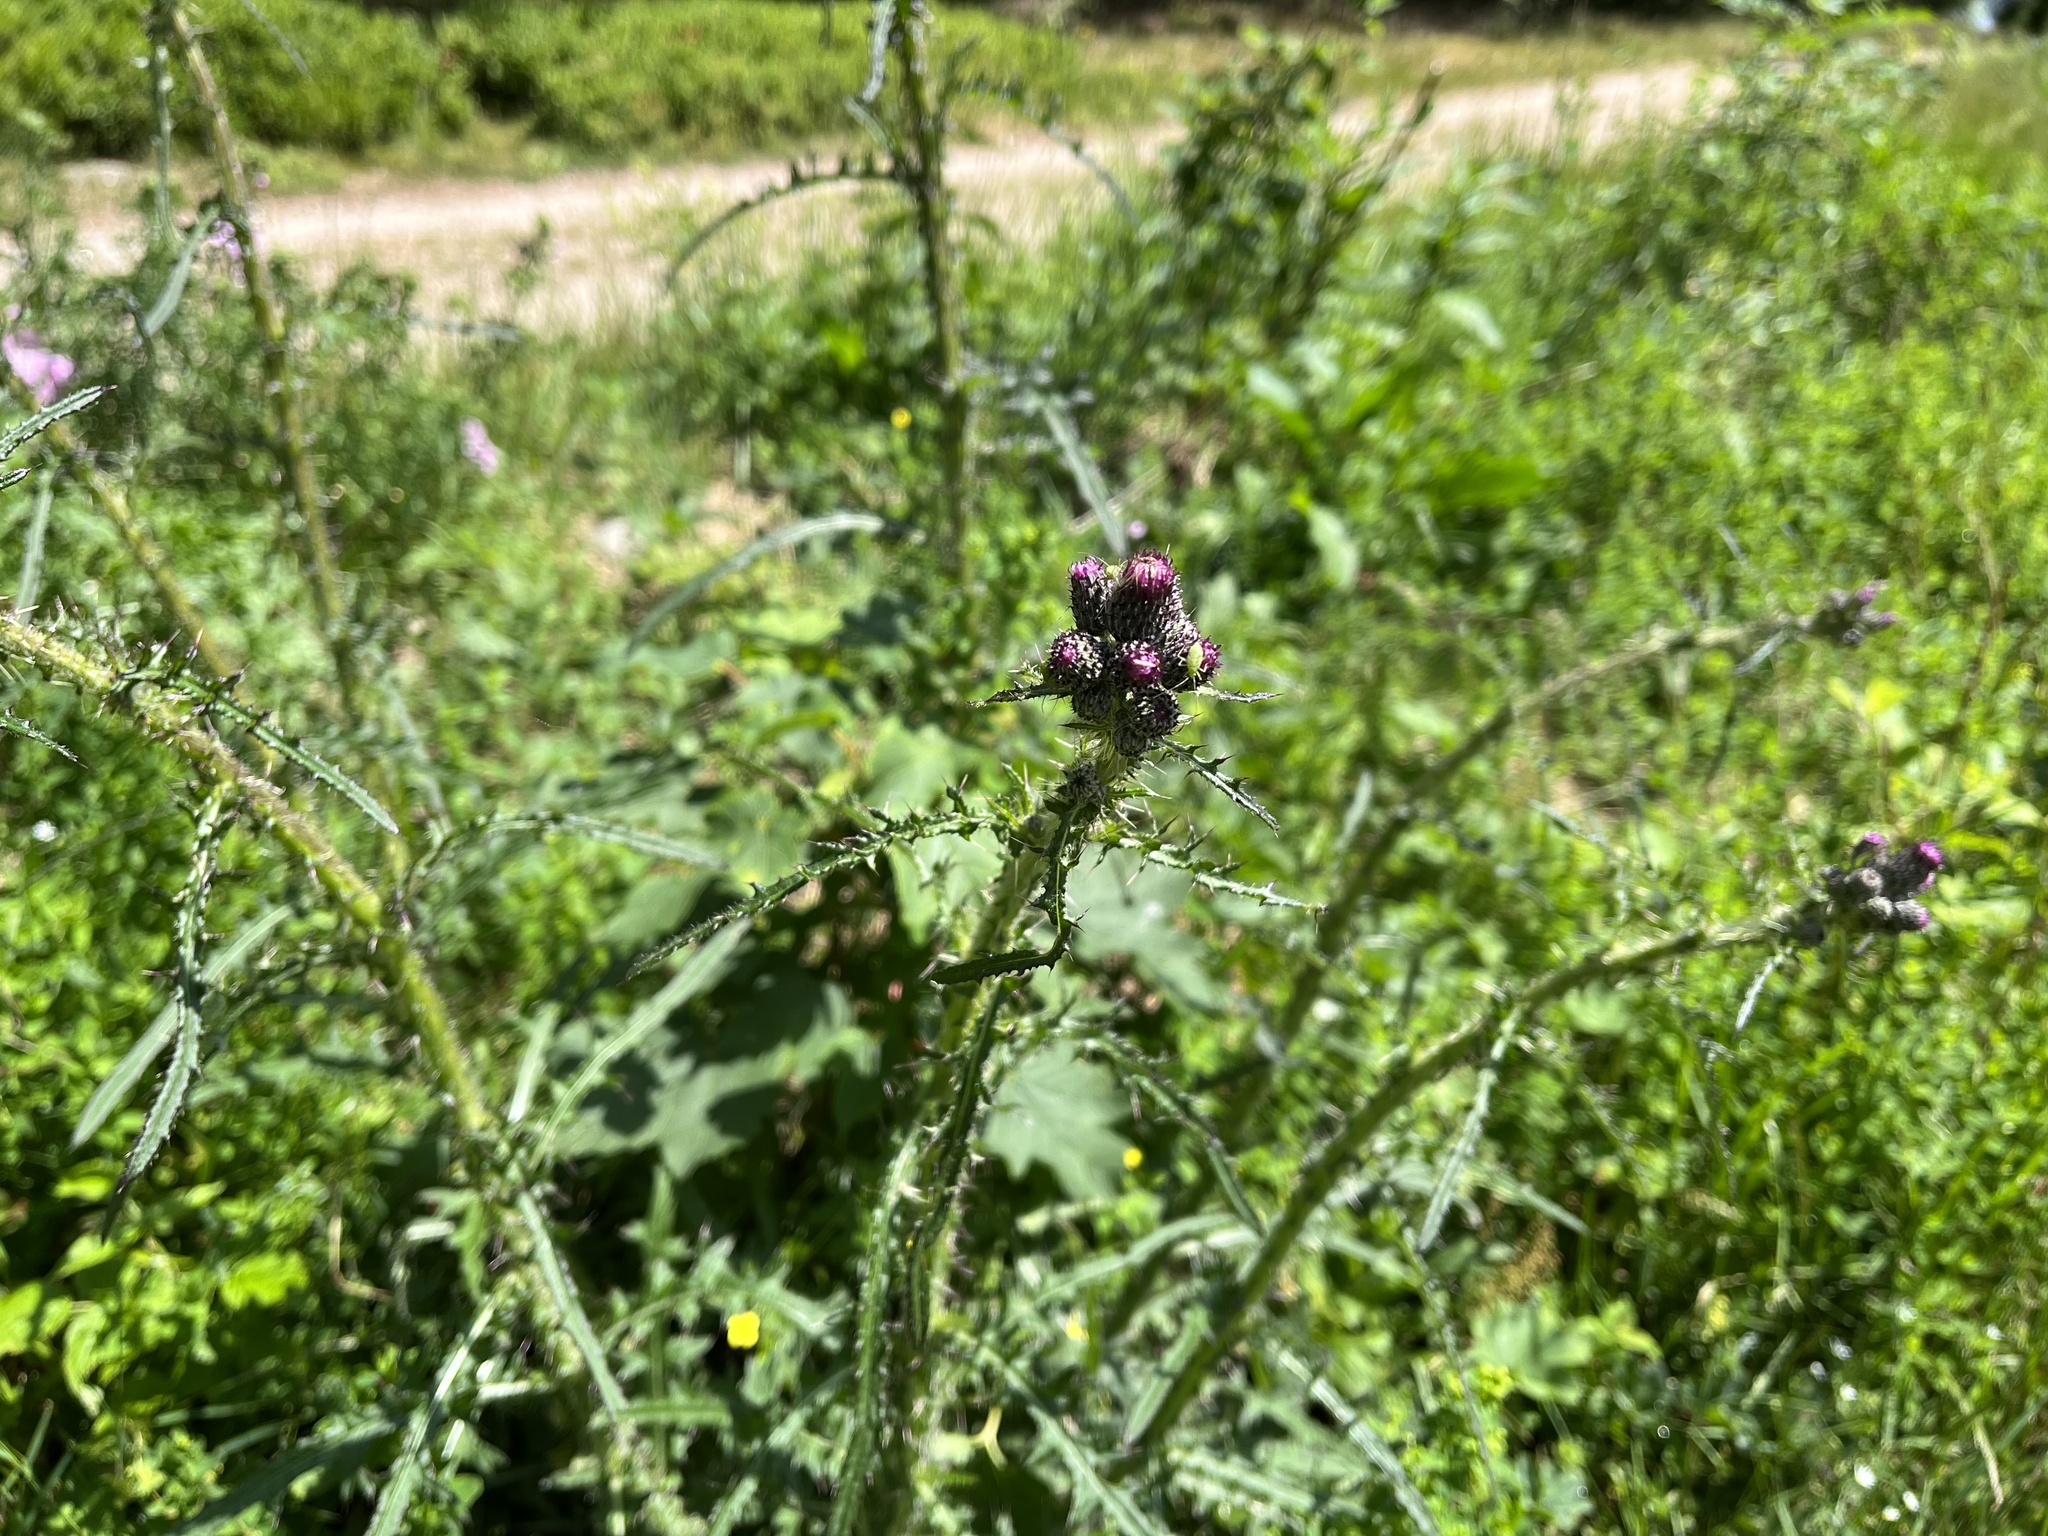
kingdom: Plantae
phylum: Tracheophyta
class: Magnoliopsida
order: Asterales
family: Asteraceae
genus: Cirsium
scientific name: Cirsium palustre
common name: Marsh thistle
